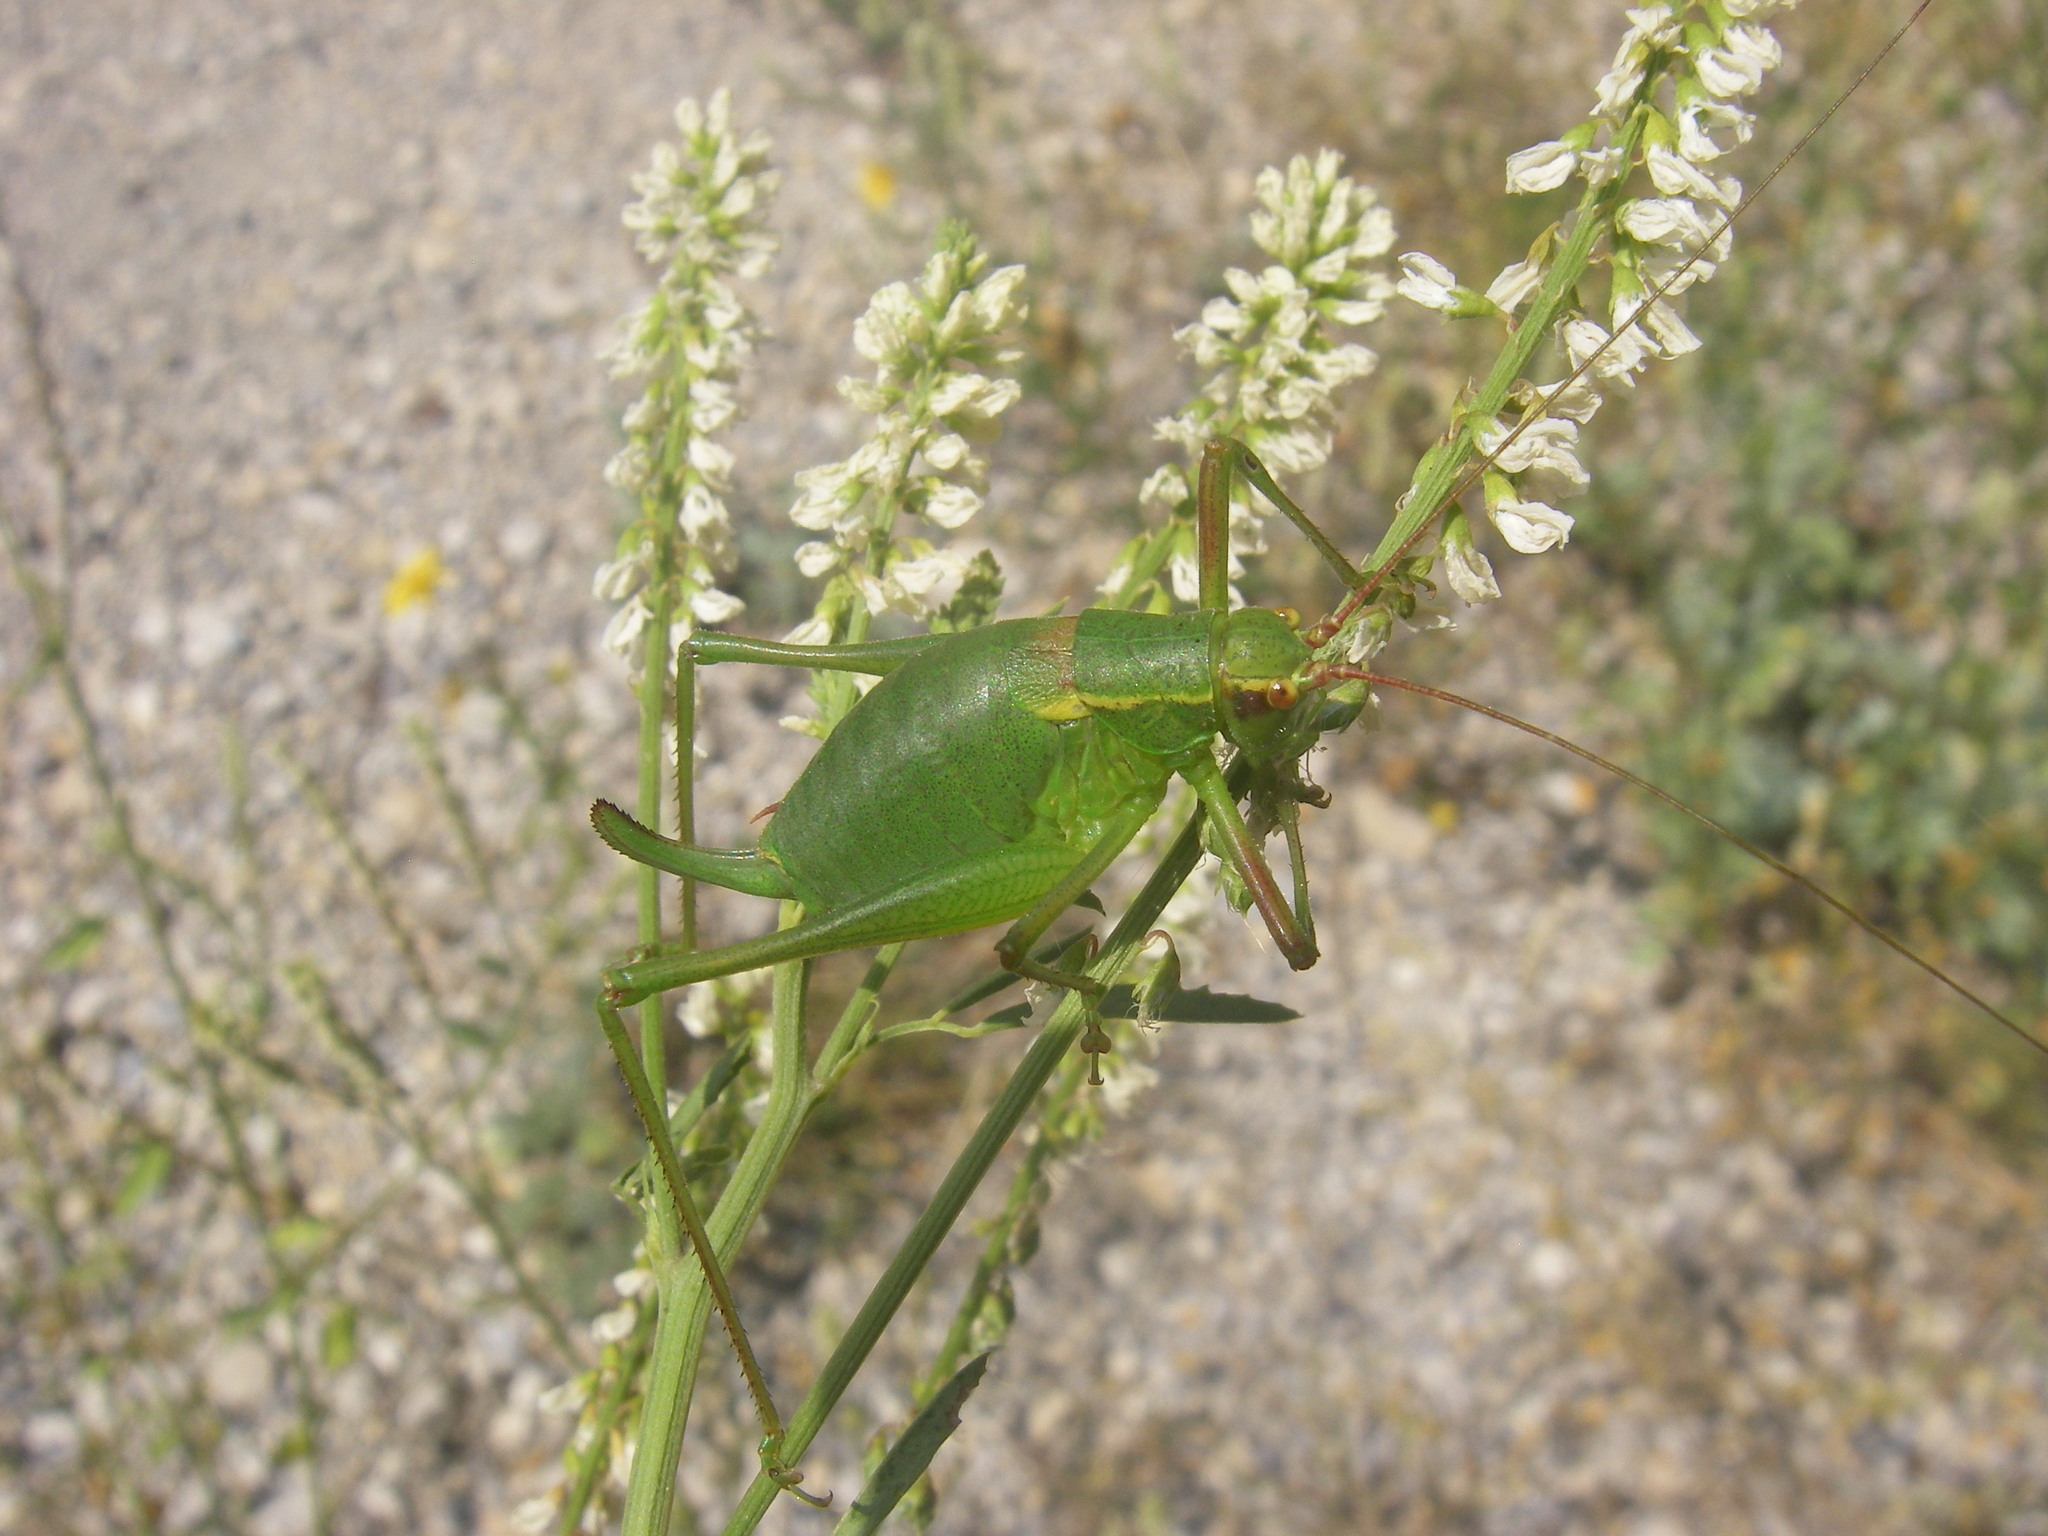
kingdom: Animalia
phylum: Arthropoda
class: Insecta
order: Orthoptera
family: Tettigoniidae
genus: Barbitistes
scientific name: Barbitistes serricauda
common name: Saw-tailed bush-cricket
